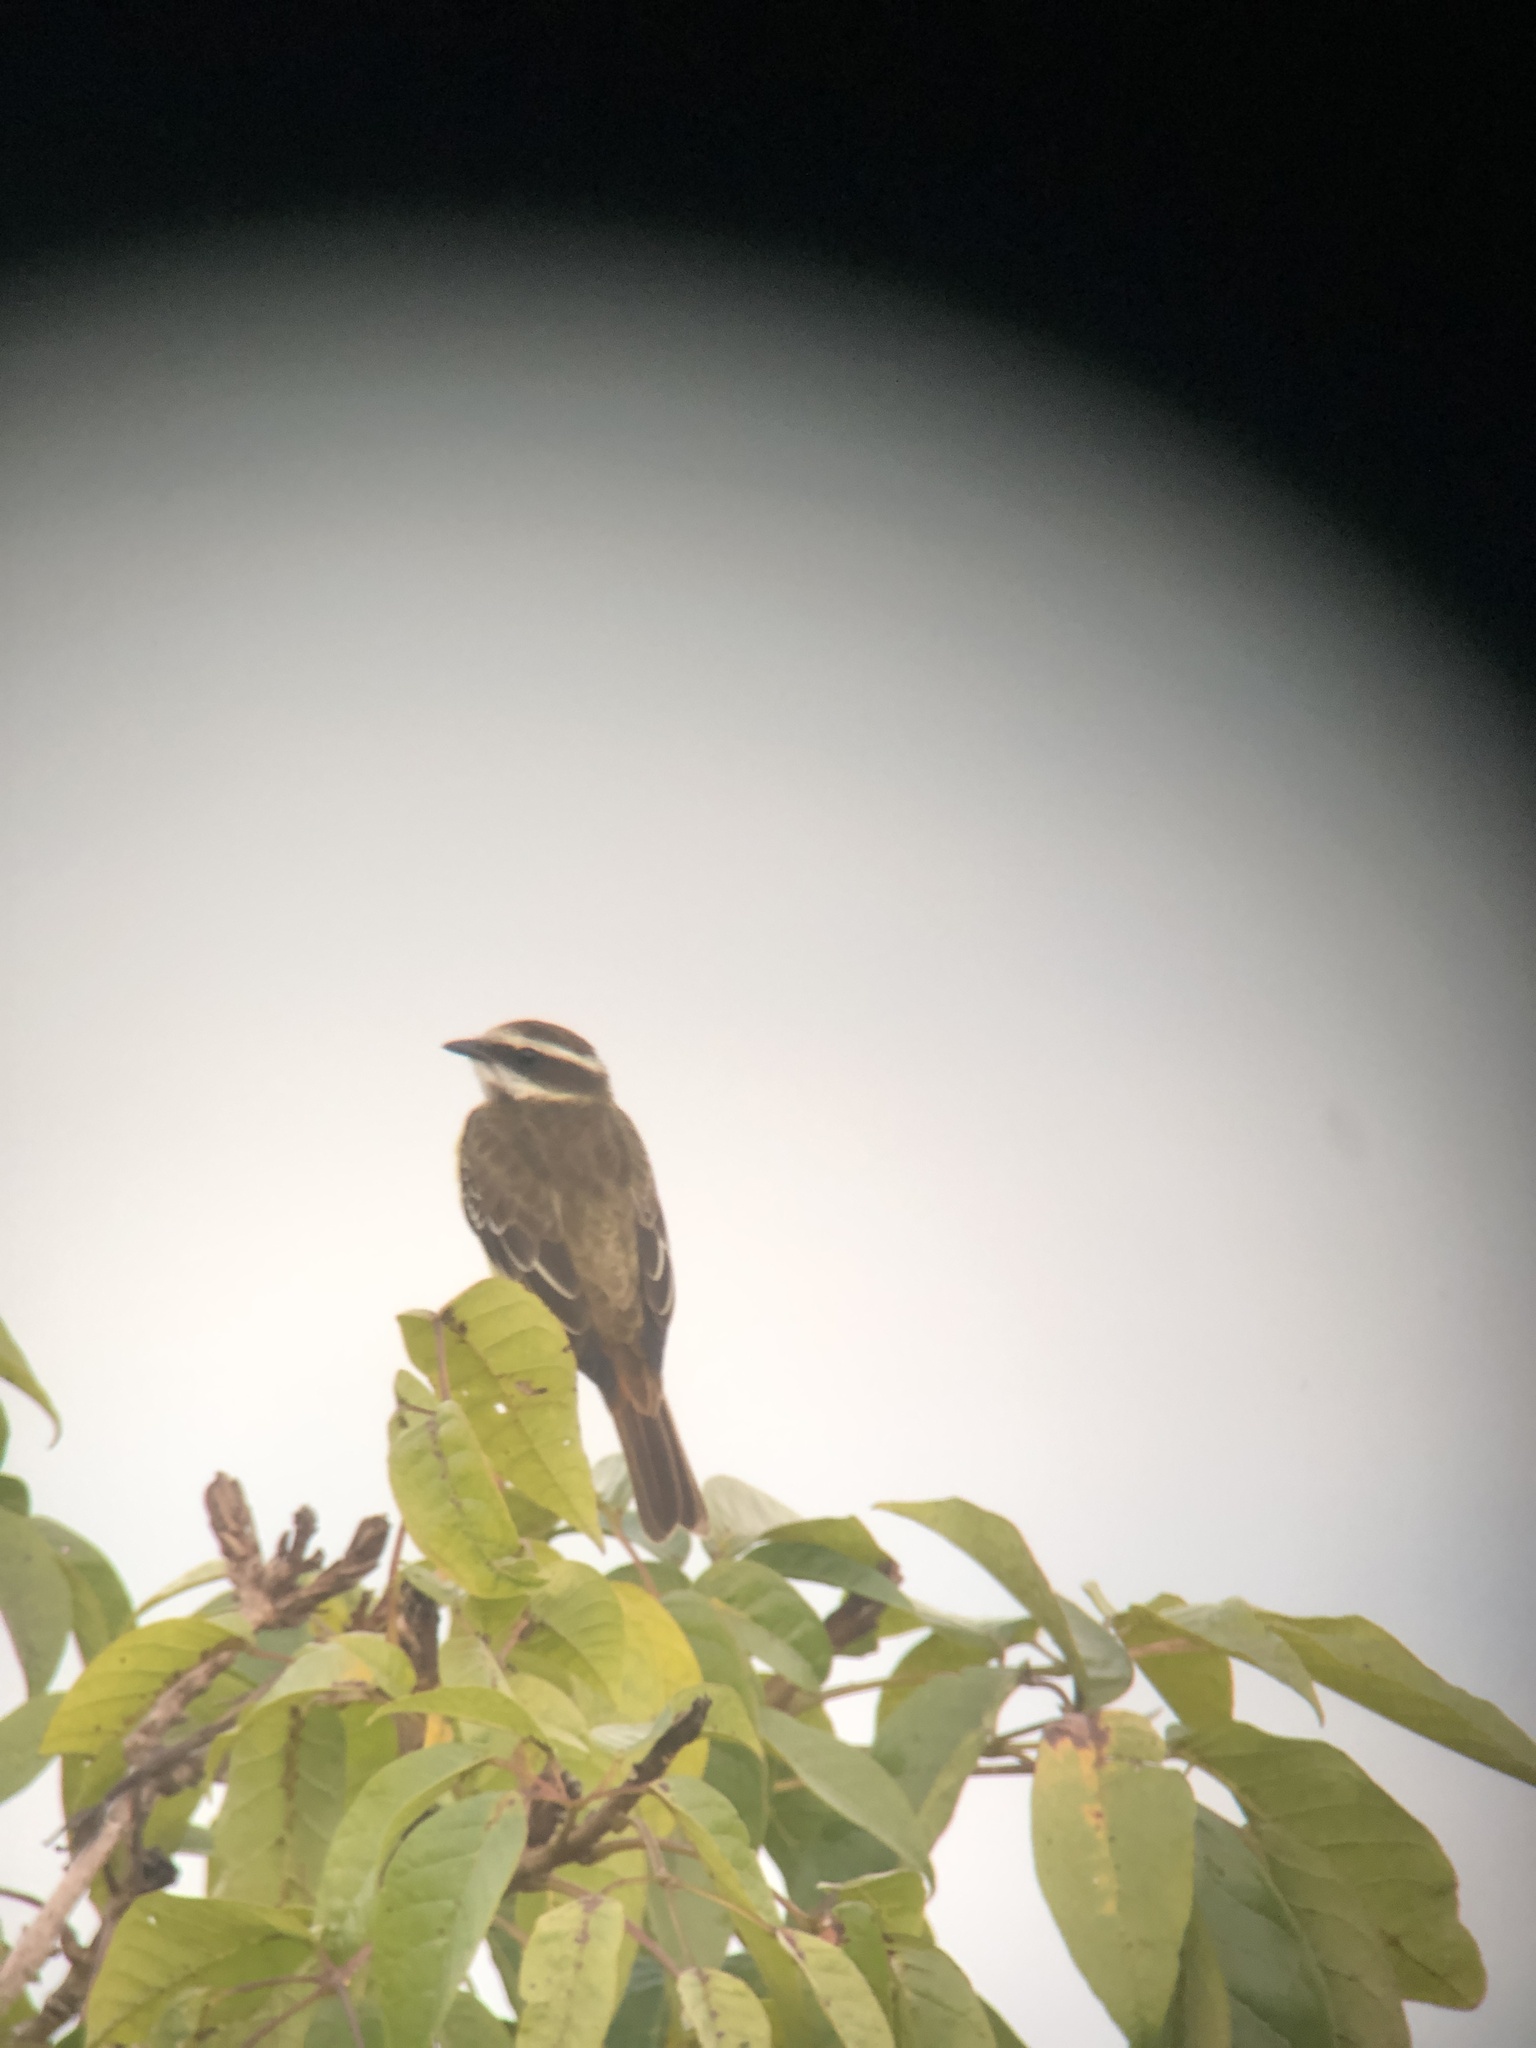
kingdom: Animalia
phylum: Chordata
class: Aves
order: Passeriformes
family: Tyrannidae
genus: Legatus
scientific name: Legatus leucophaius
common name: Piratic flycatcher
